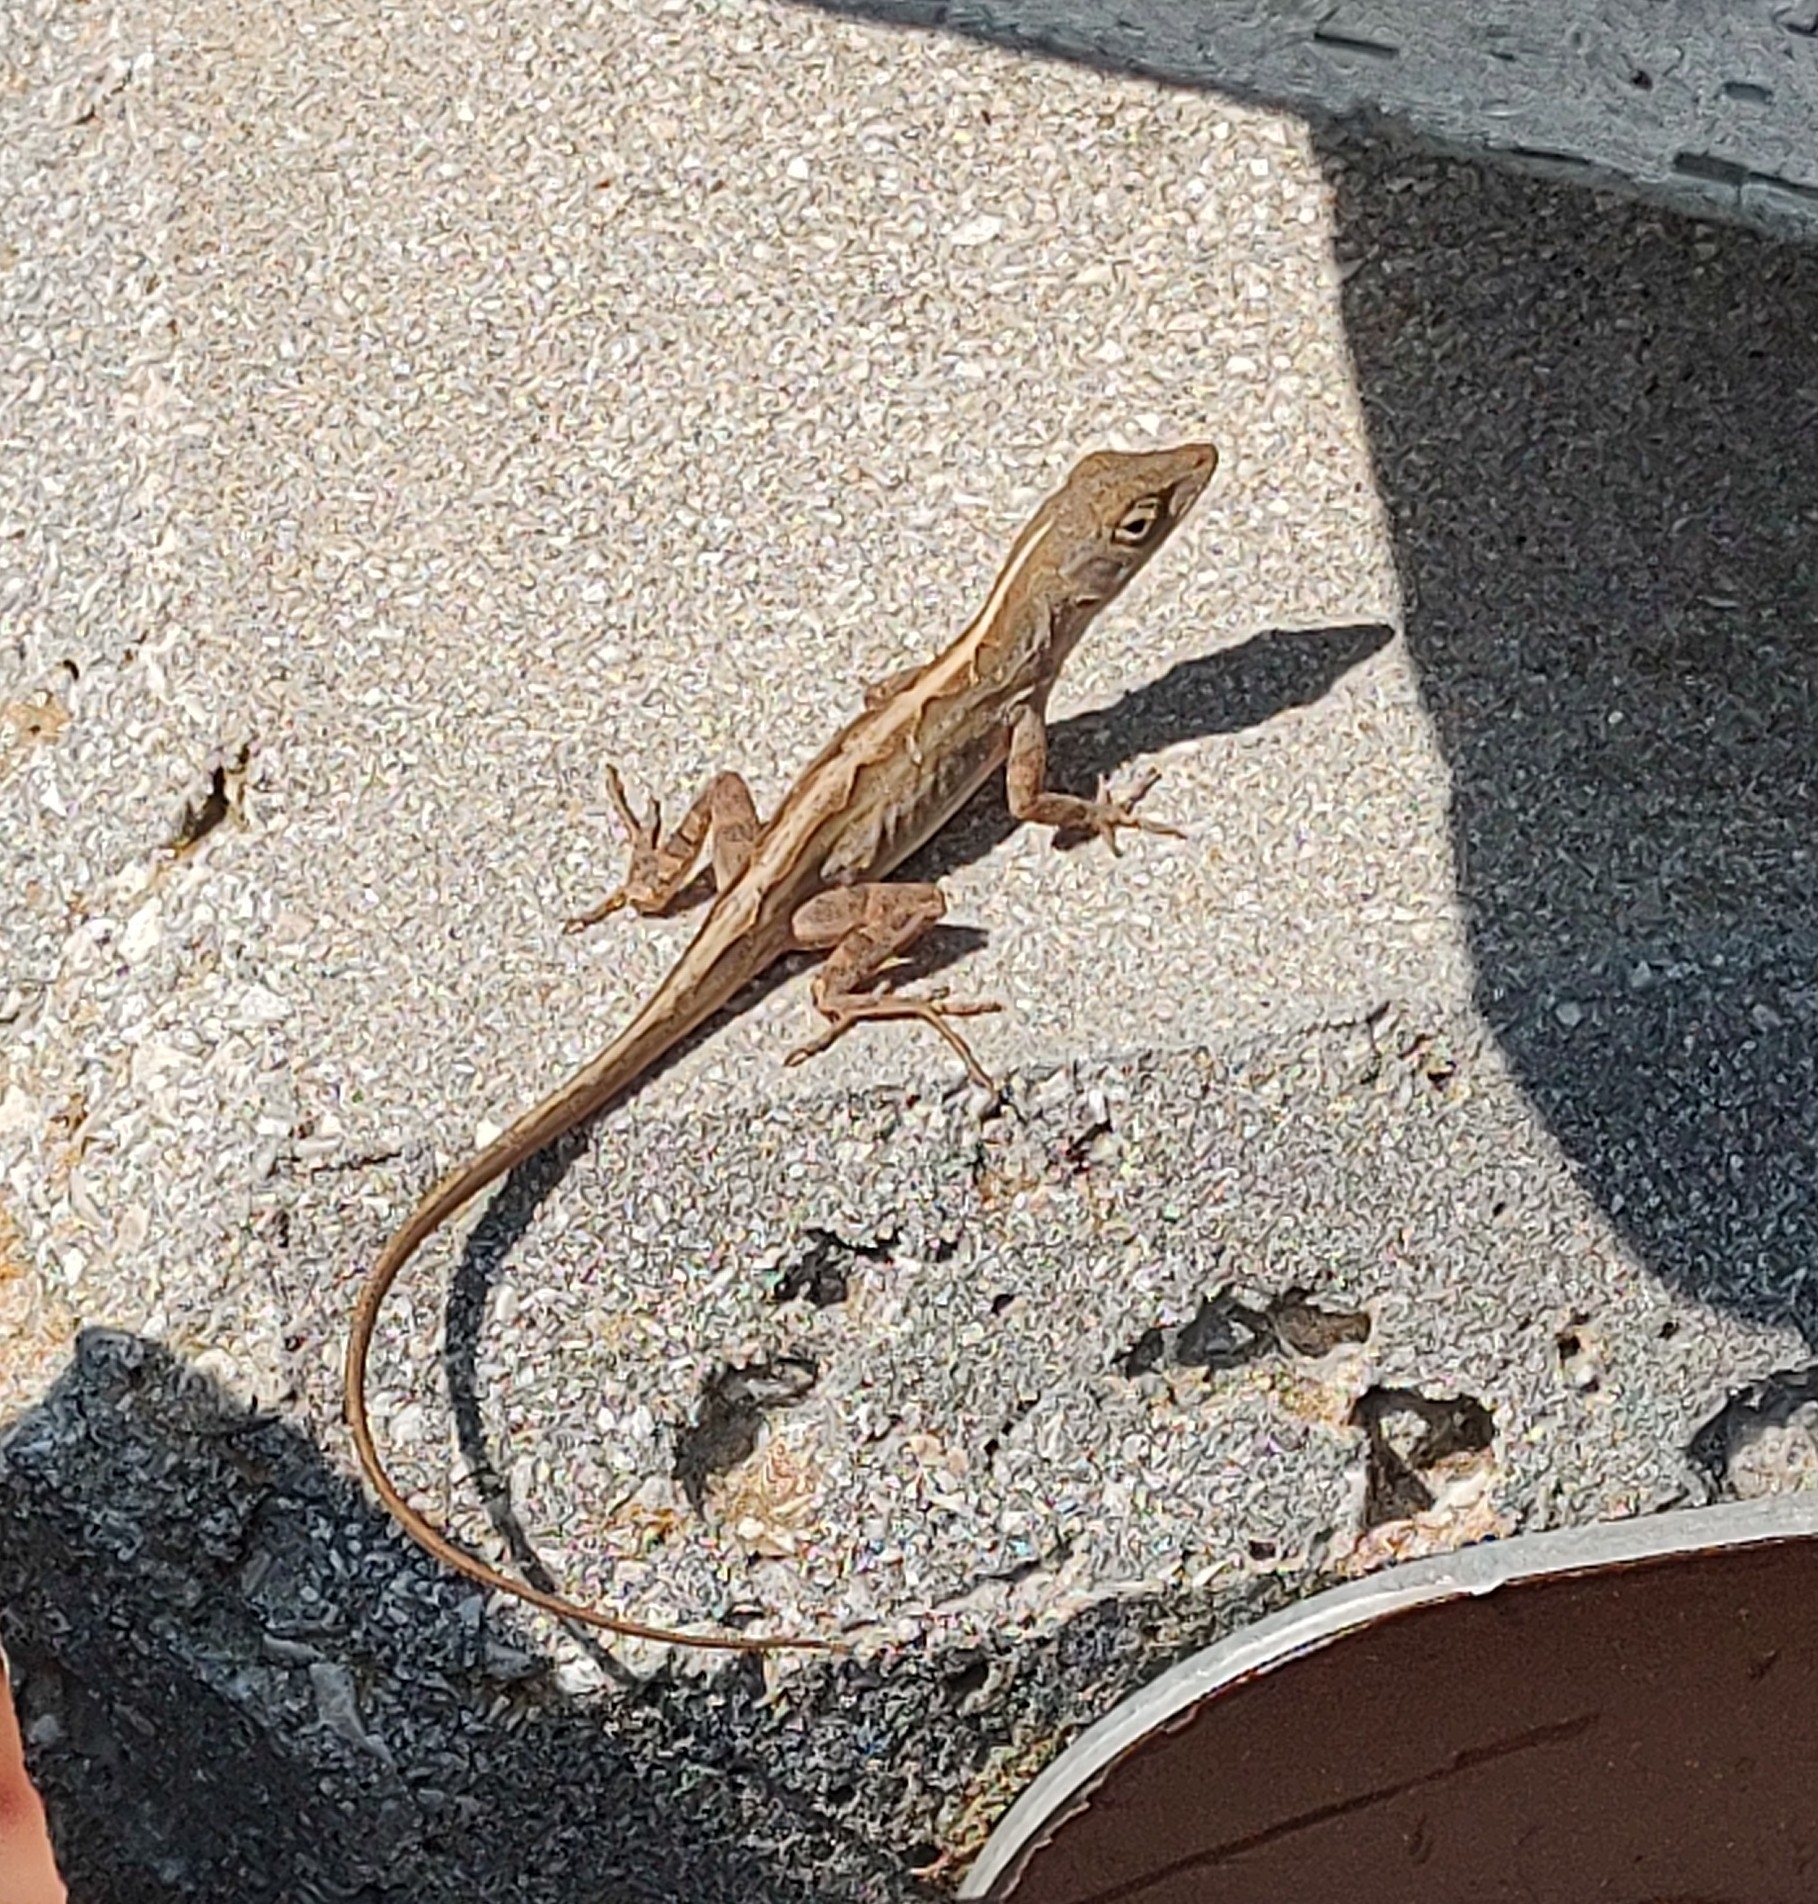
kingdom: Animalia
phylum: Chordata
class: Squamata
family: Dactyloidae
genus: Anolis
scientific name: Anolis sagrei
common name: Brown anole
